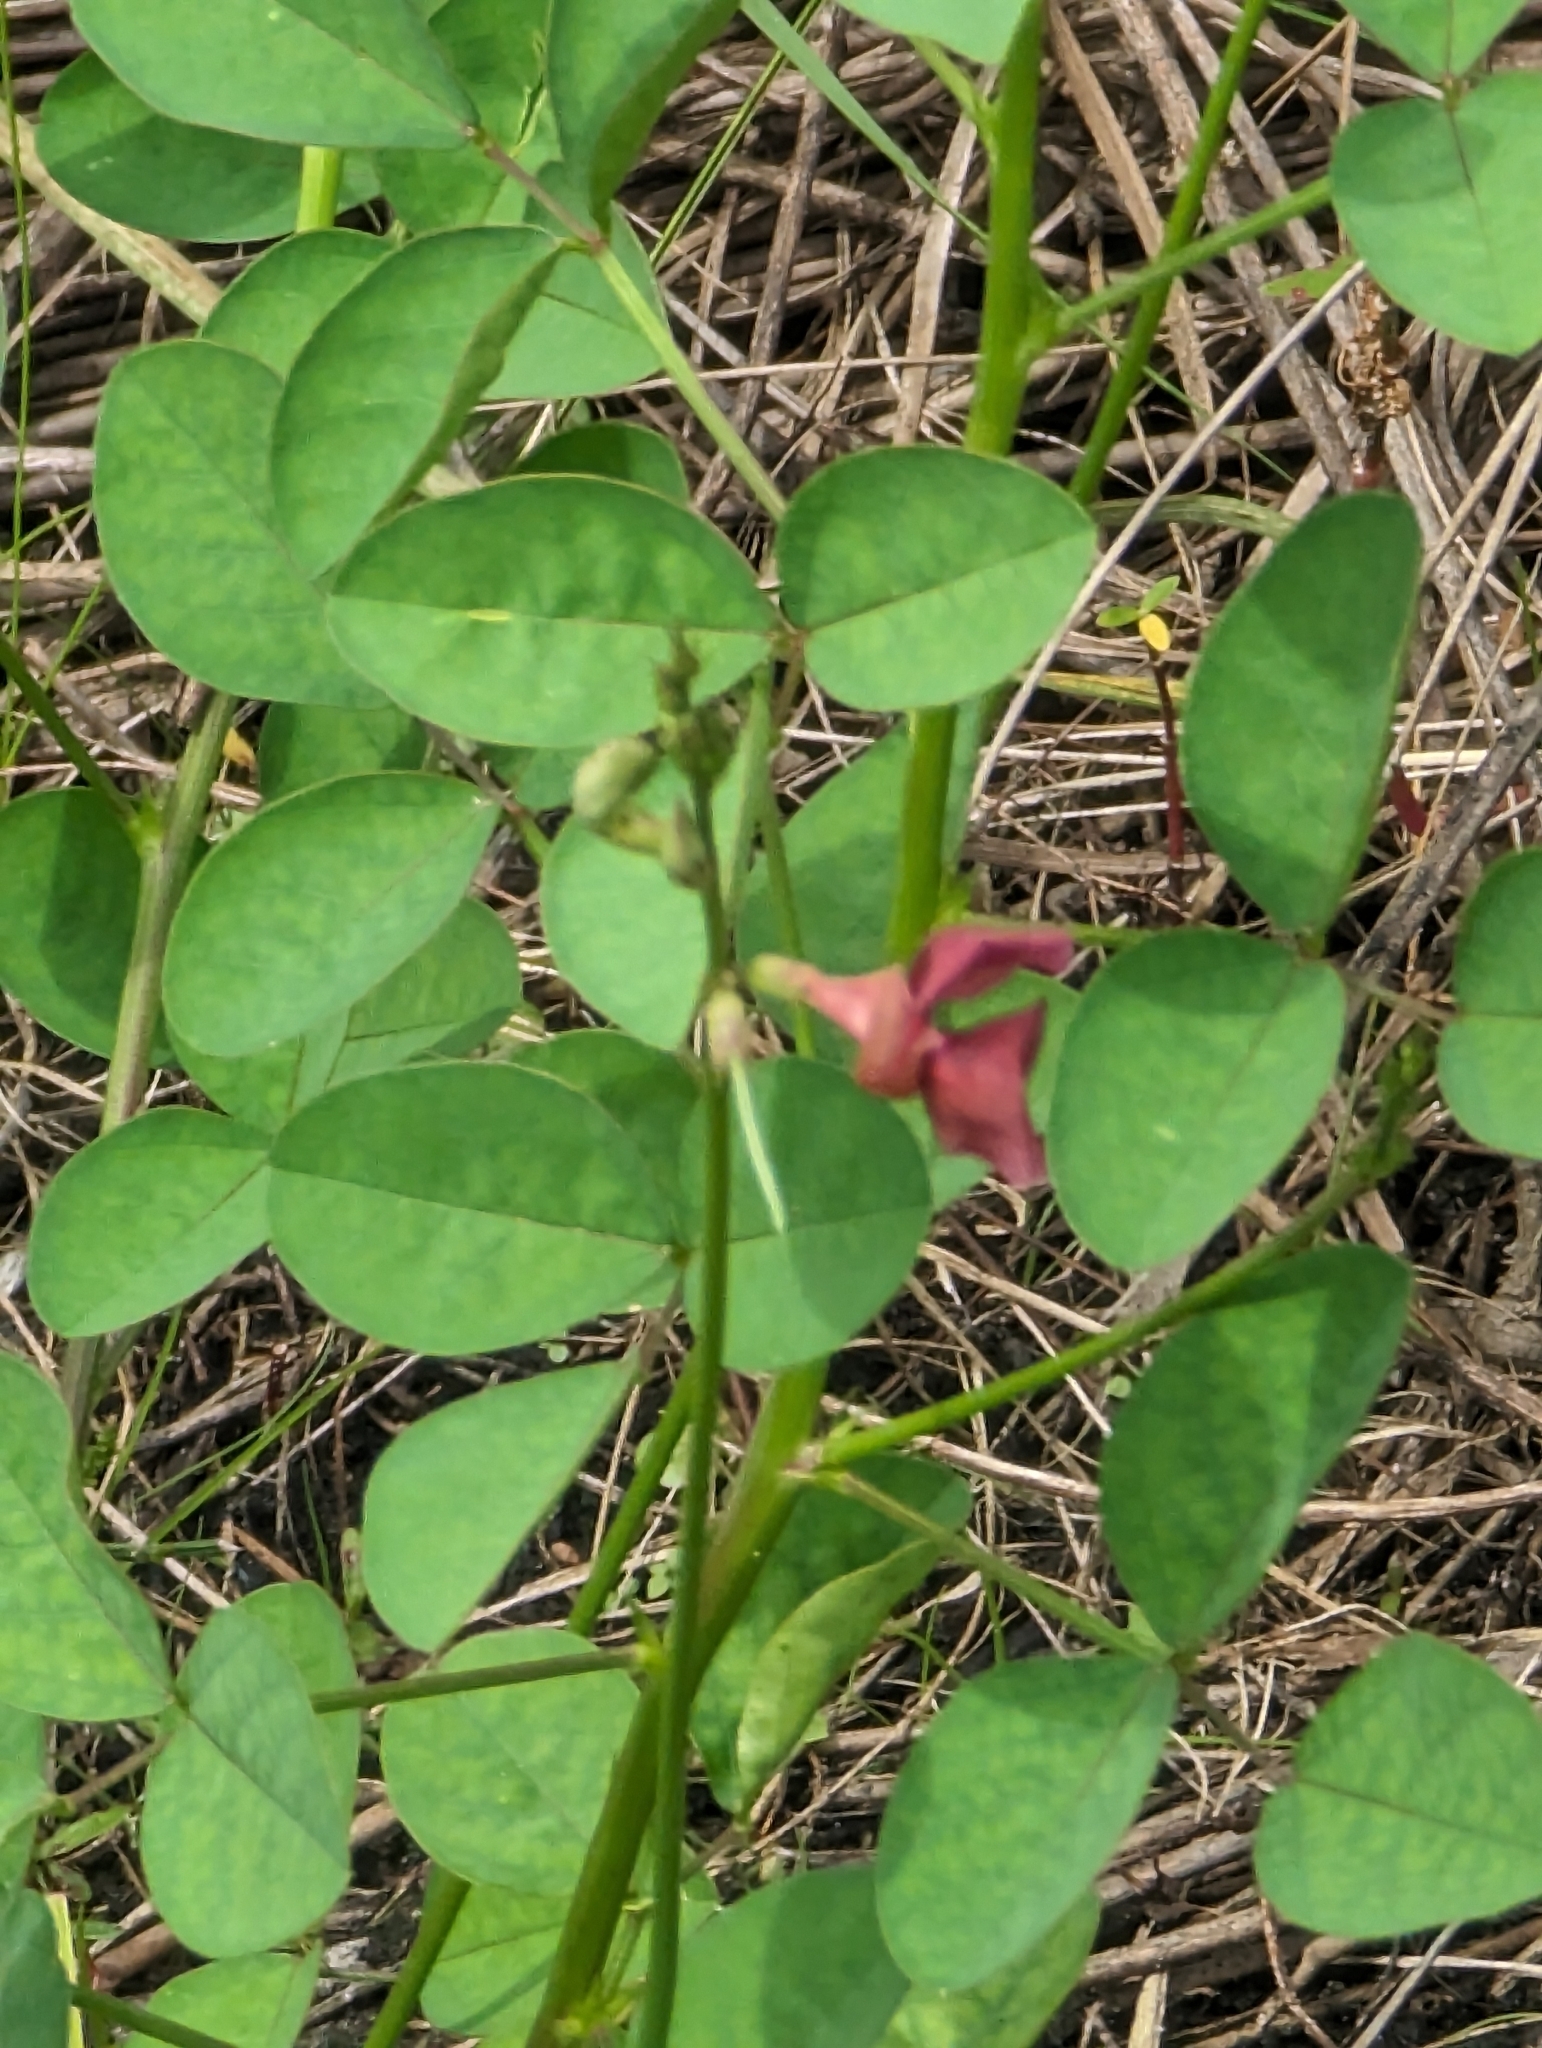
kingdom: Plantae
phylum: Tracheophyta
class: Magnoliopsida
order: Fabales
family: Fabaceae
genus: Macroptilium
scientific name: Macroptilium lathyroides
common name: Wild bushbean
